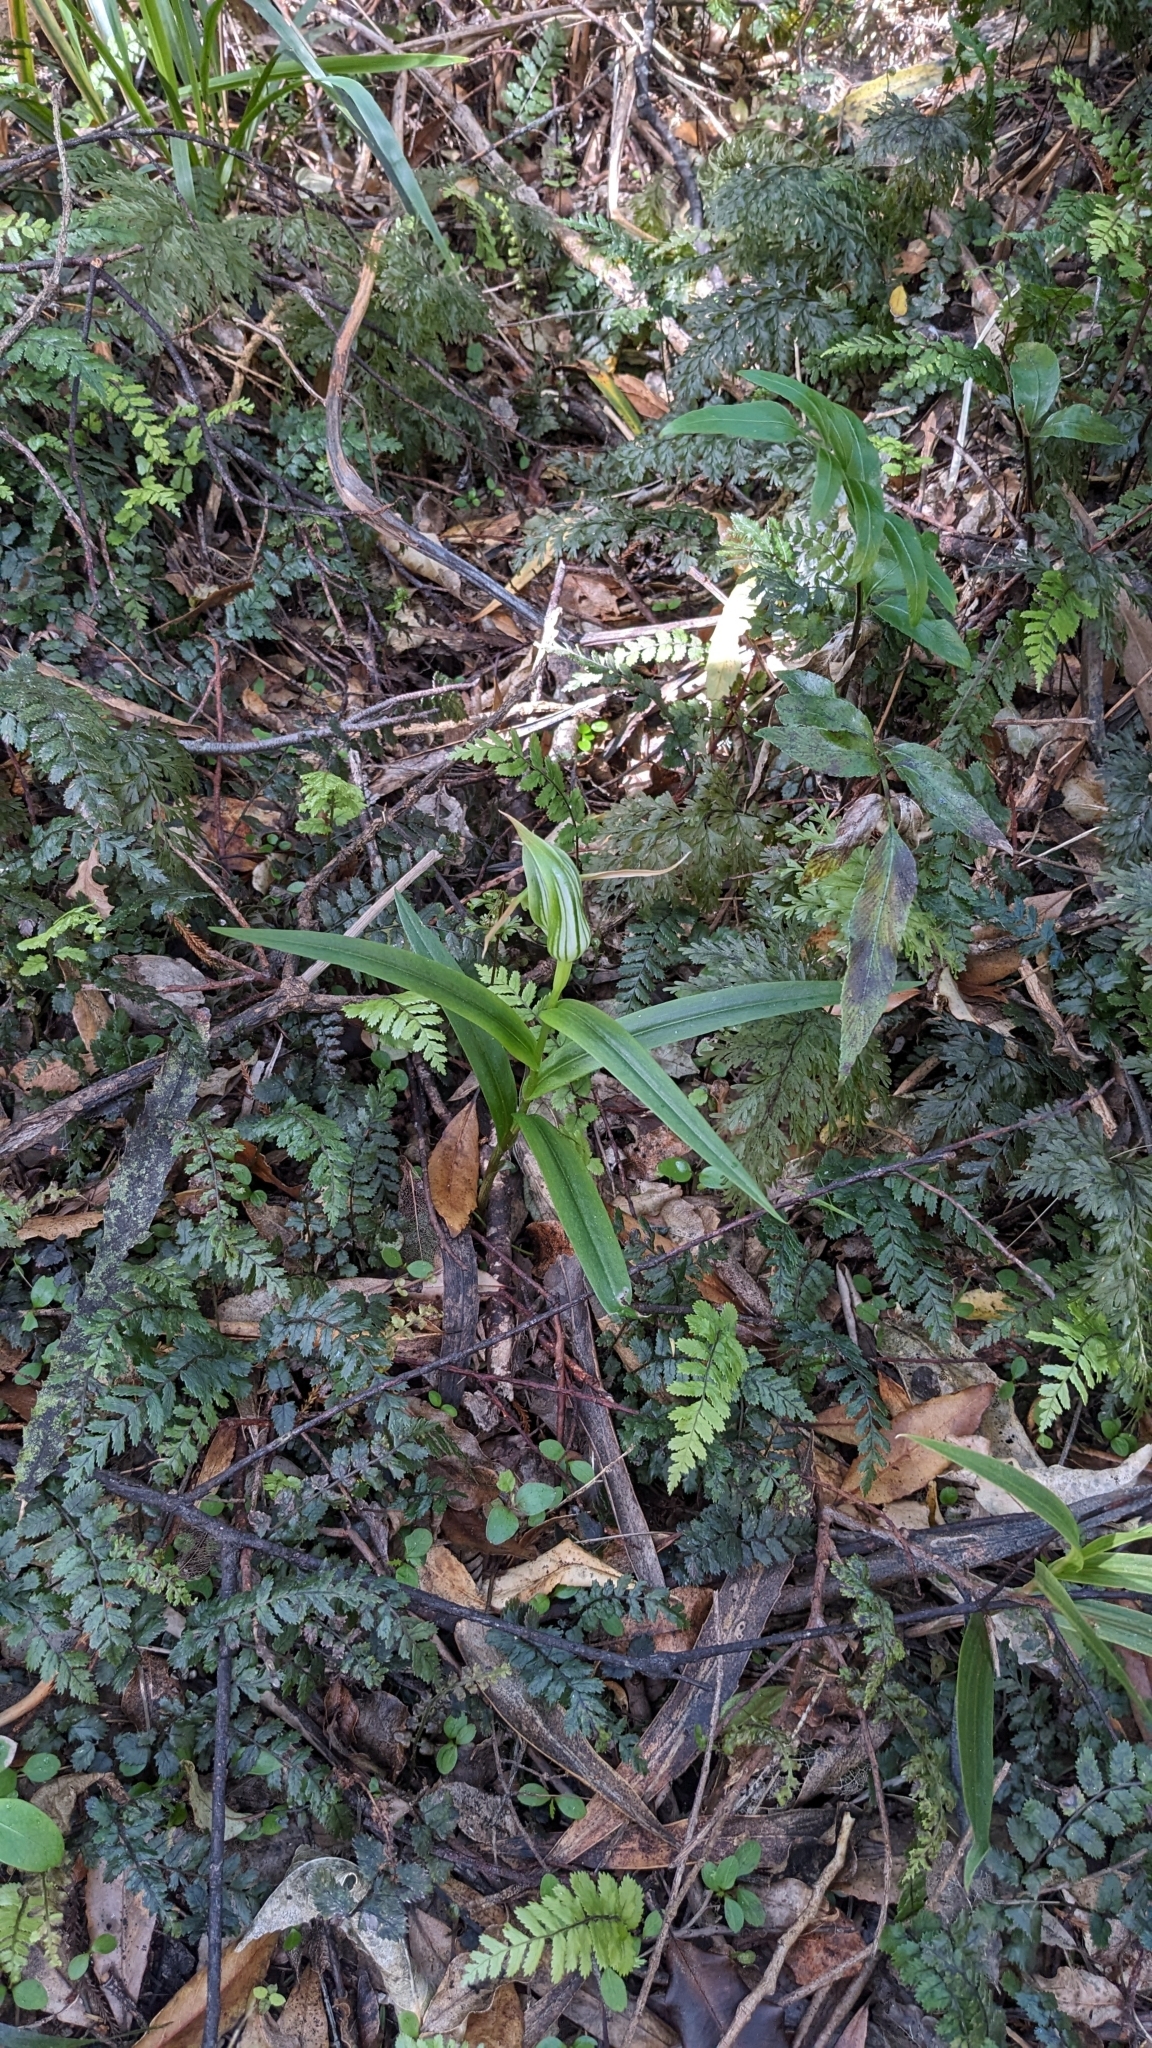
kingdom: Plantae
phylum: Tracheophyta
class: Liliopsida
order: Asparagales
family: Orchidaceae
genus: Pterostylis
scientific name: Pterostylis banksii
